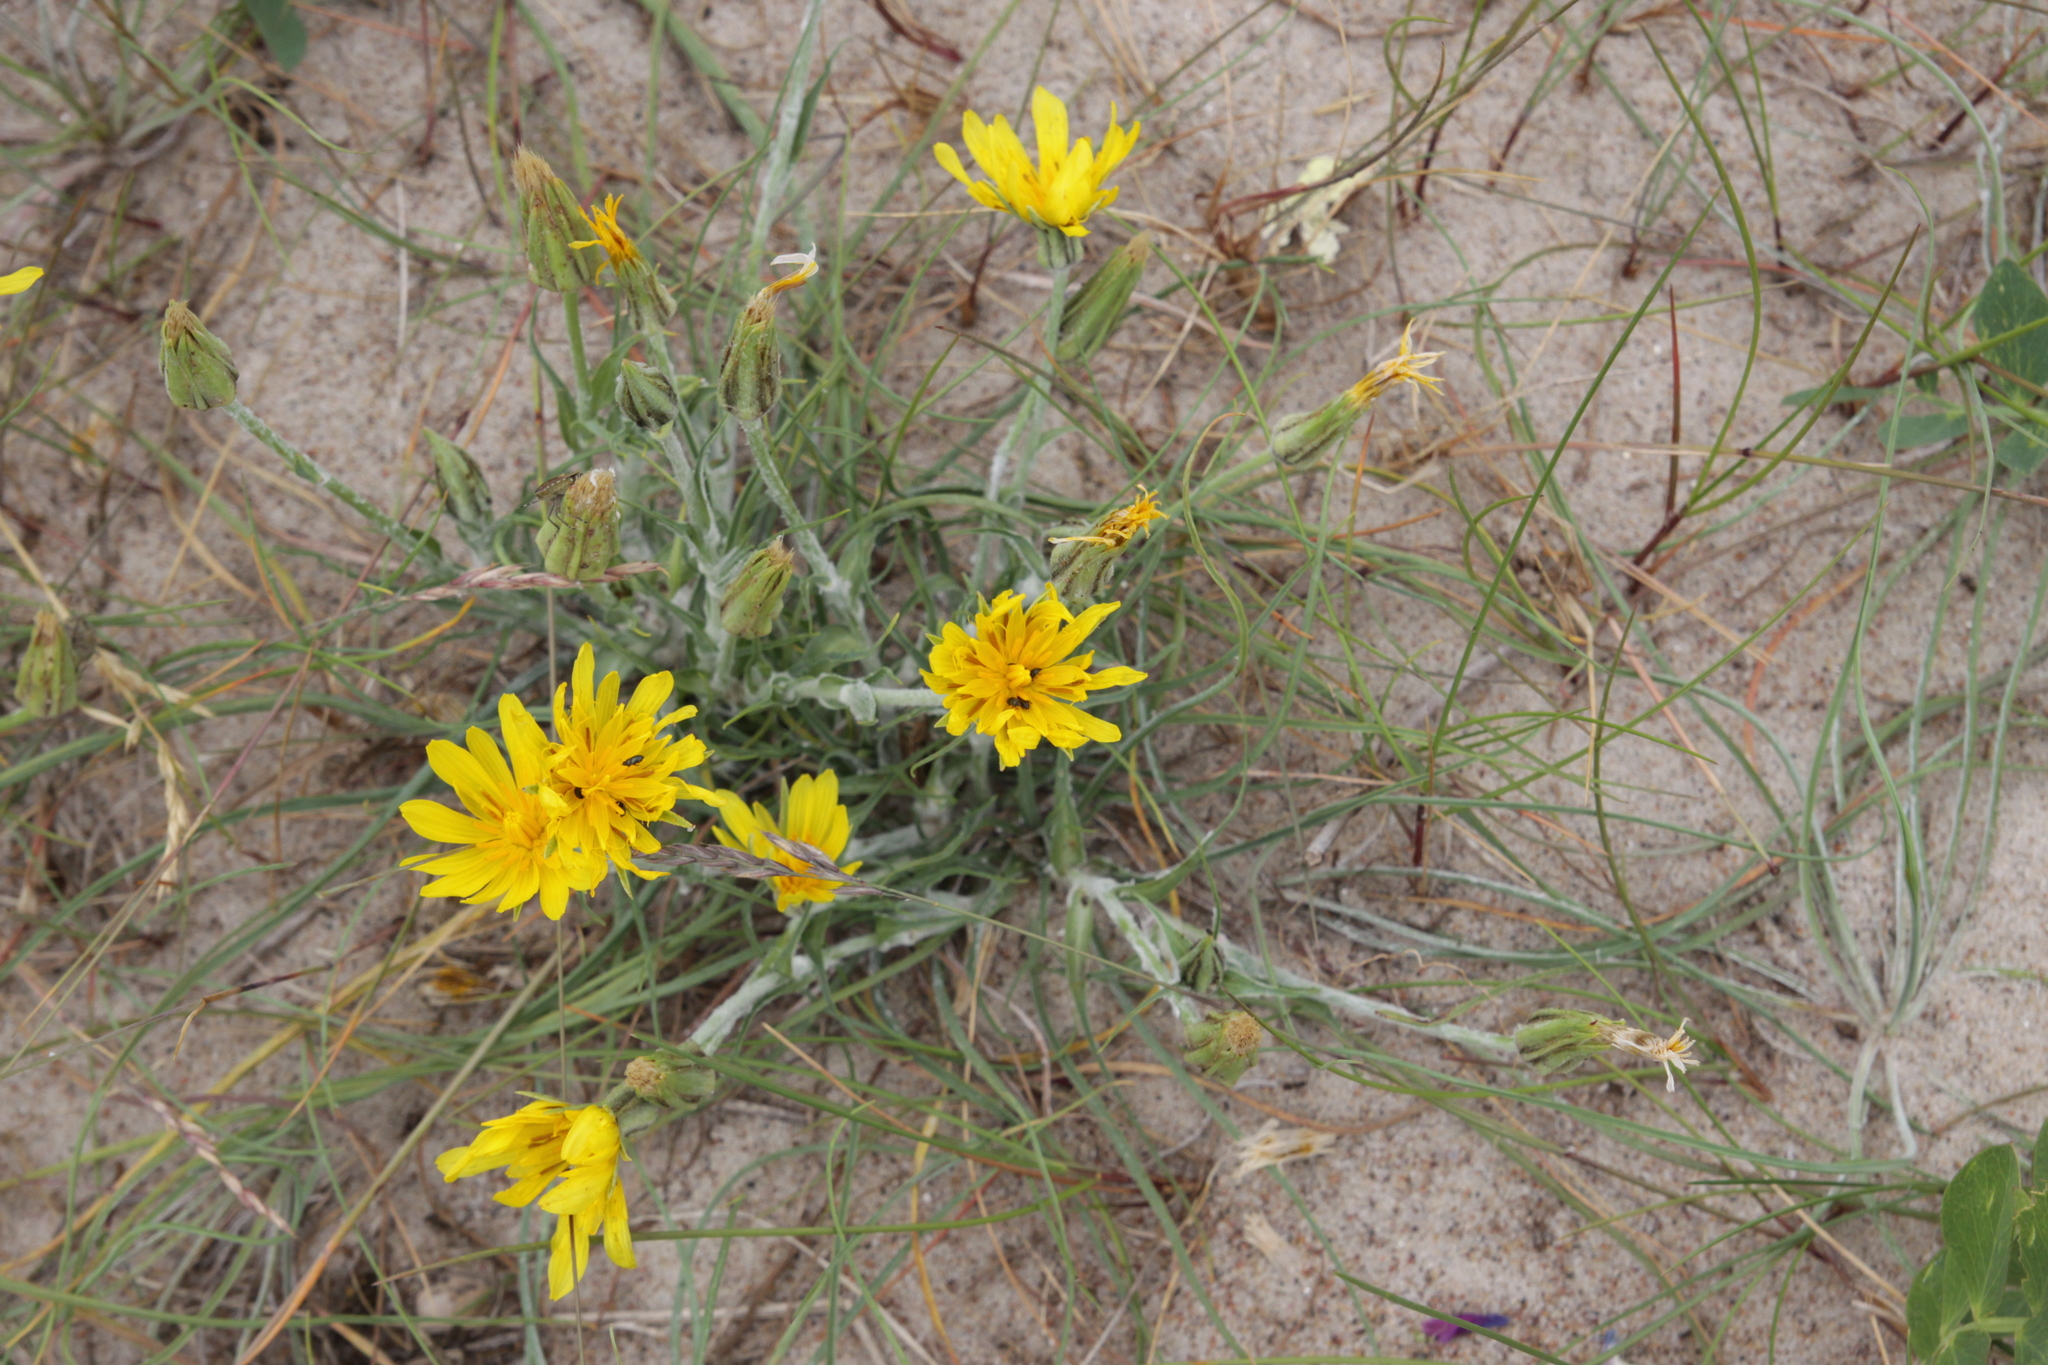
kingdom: Plantae
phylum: Tracheophyta
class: Magnoliopsida
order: Asterales
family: Asteraceae
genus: Tragopogon
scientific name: Tragopogon heterospermus
